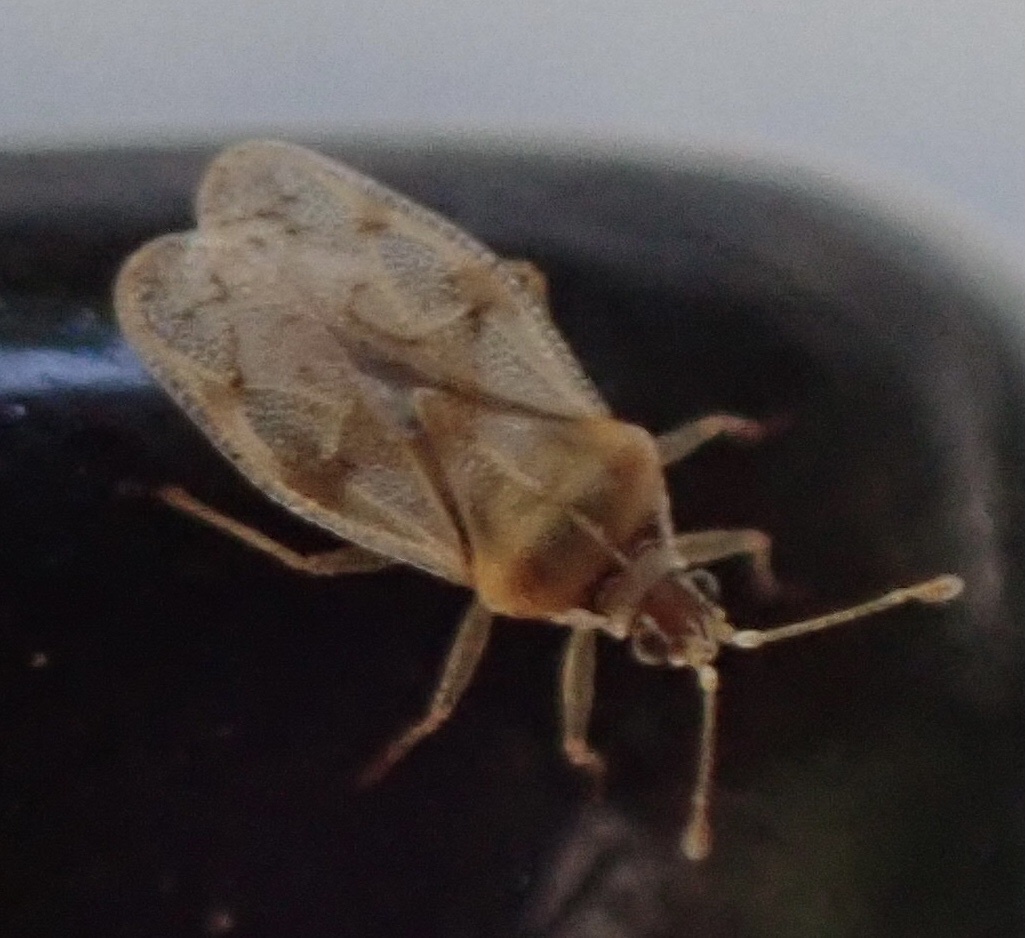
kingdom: Animalia
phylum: Arthropoda
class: Insecta
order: Hemiptera
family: Tingidae
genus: Monosteira
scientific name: Monosteira unicostata
